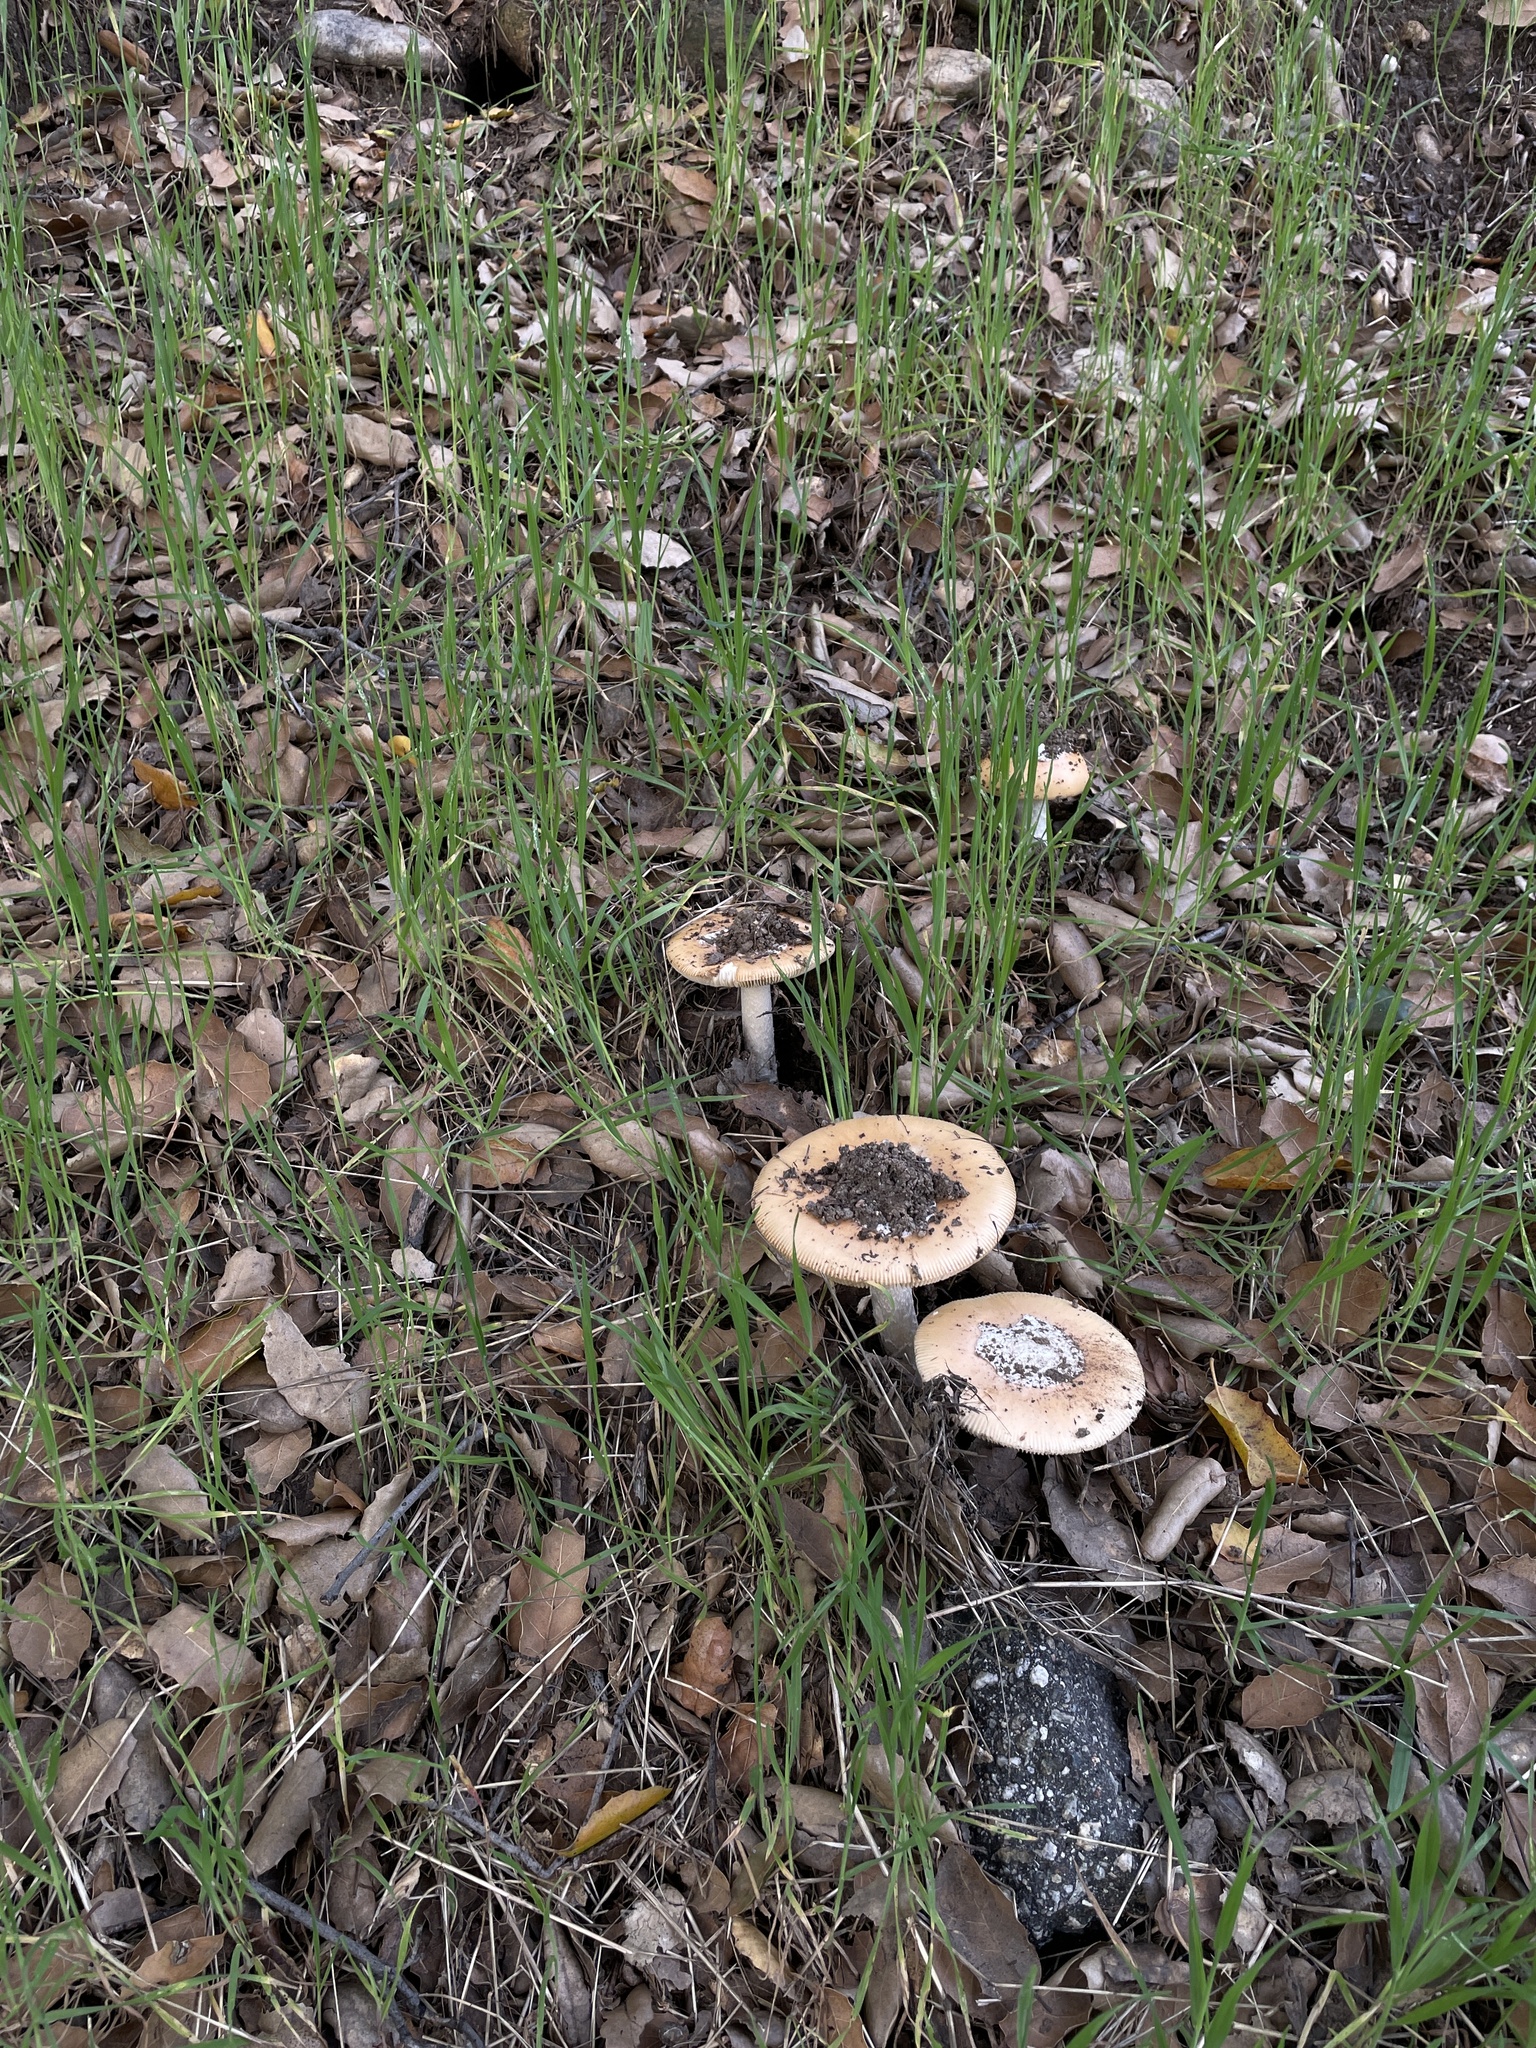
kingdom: Fungi
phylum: Basidiomycota
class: Agaricomycetes
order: Agaricales
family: Amanitaceae
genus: Amanita
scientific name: Amanita velosa
